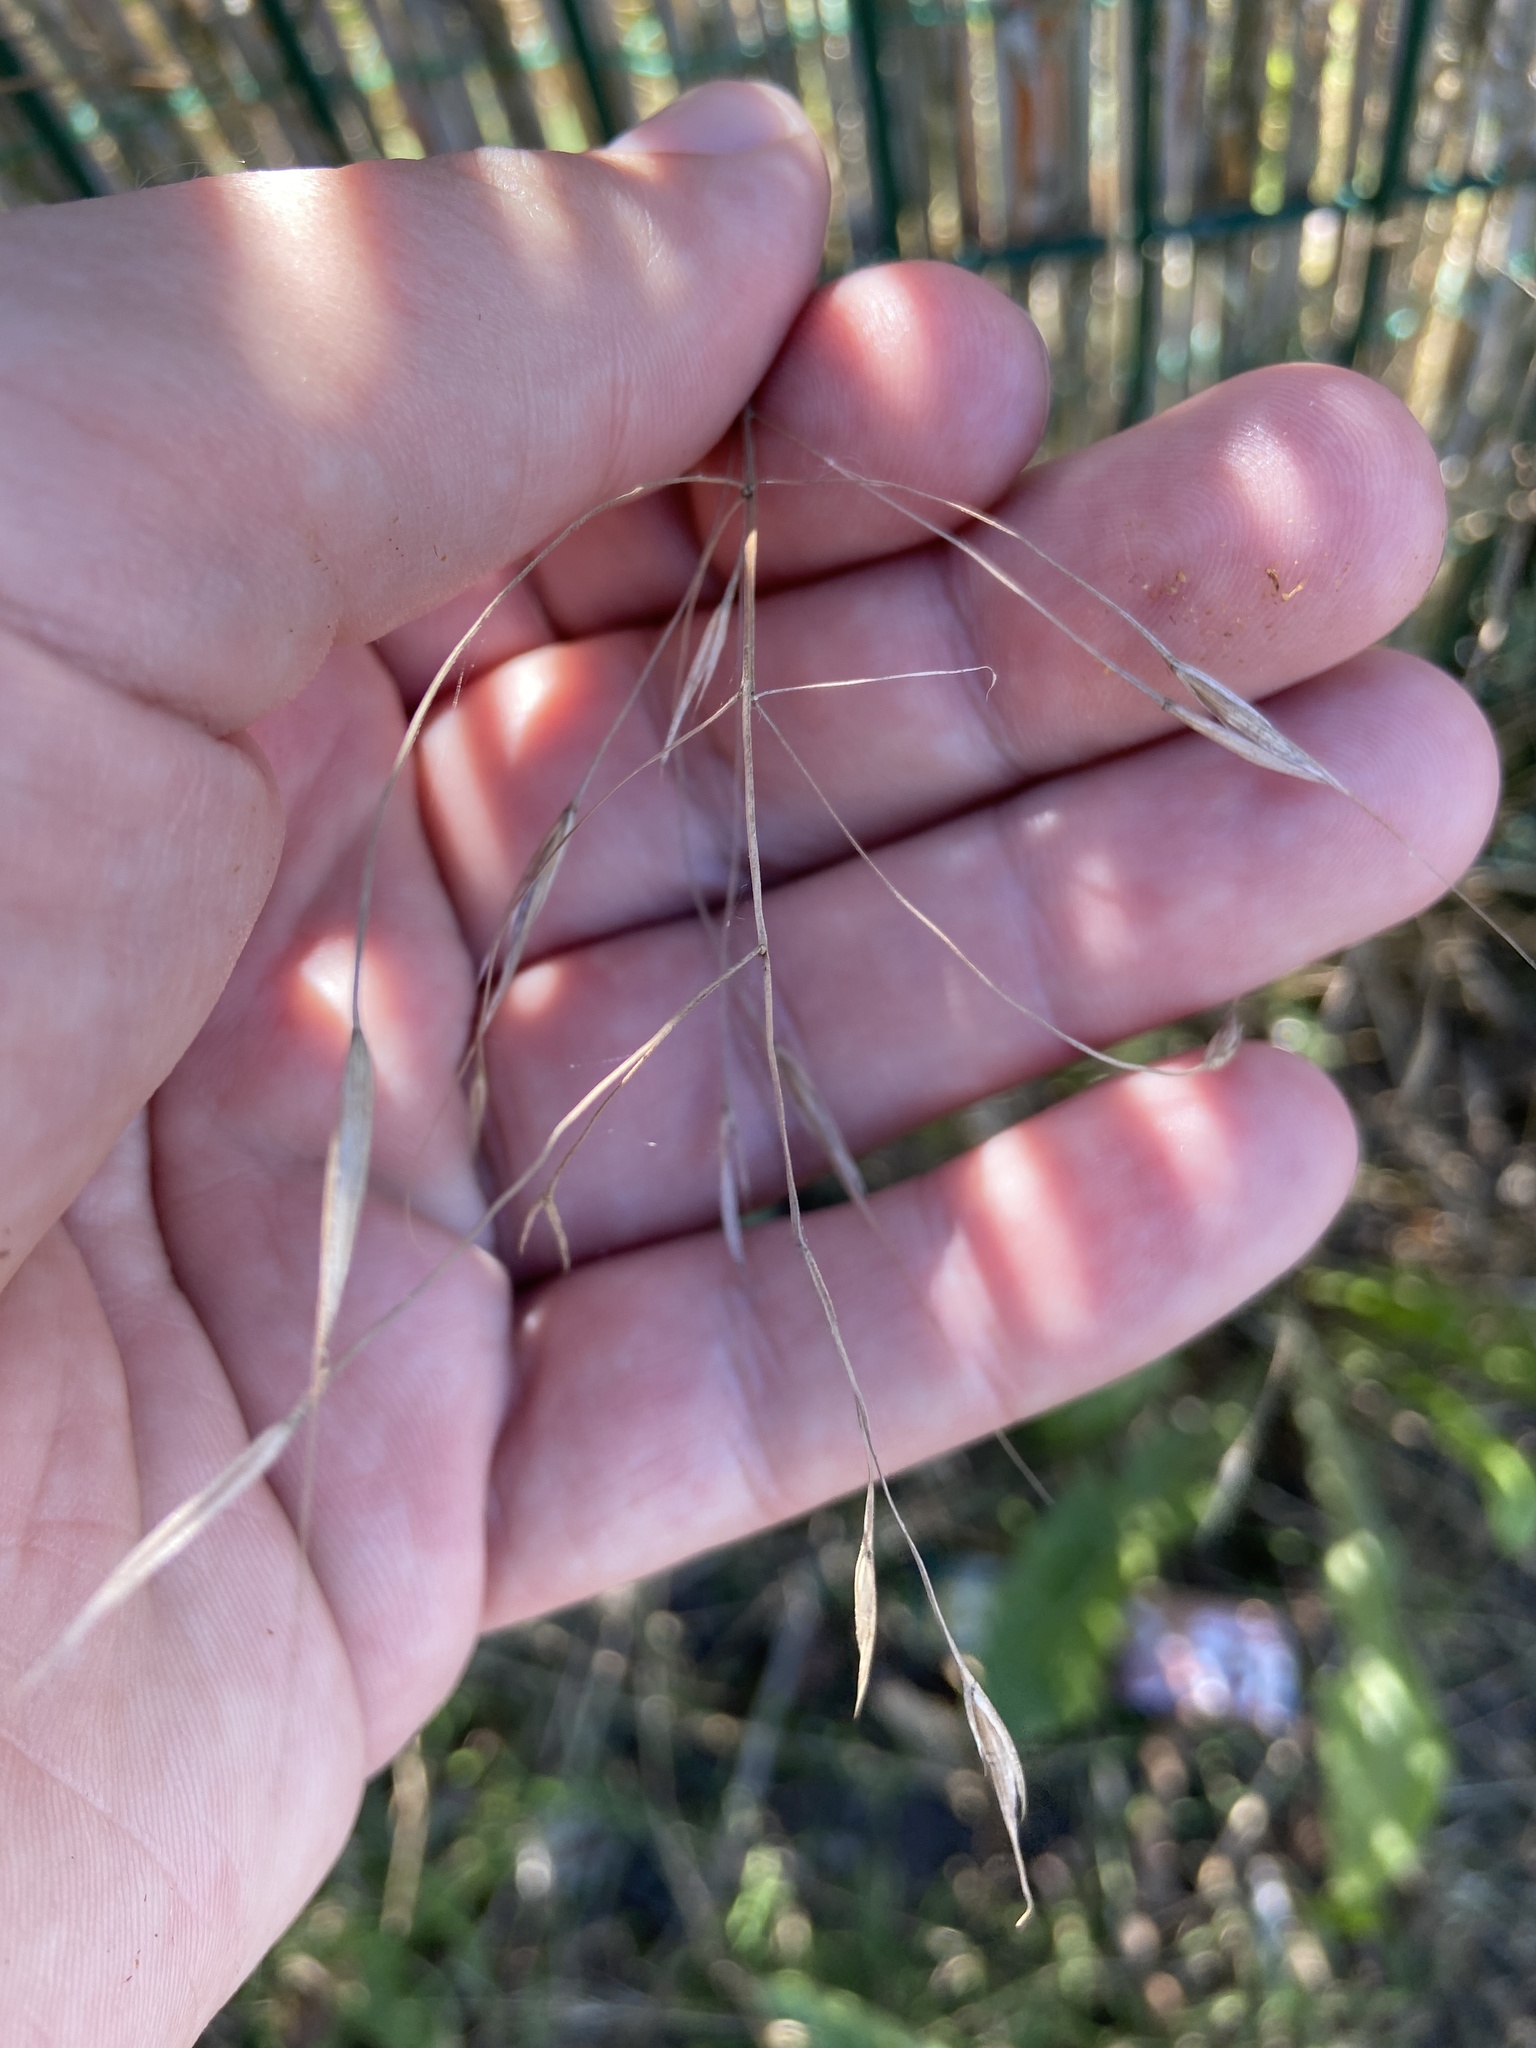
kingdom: Plantae
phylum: Tracheophyta
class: Liliopsida
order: Poales
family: Poaceae
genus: Bromus
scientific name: Bromus sterilis
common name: Poverty brome
